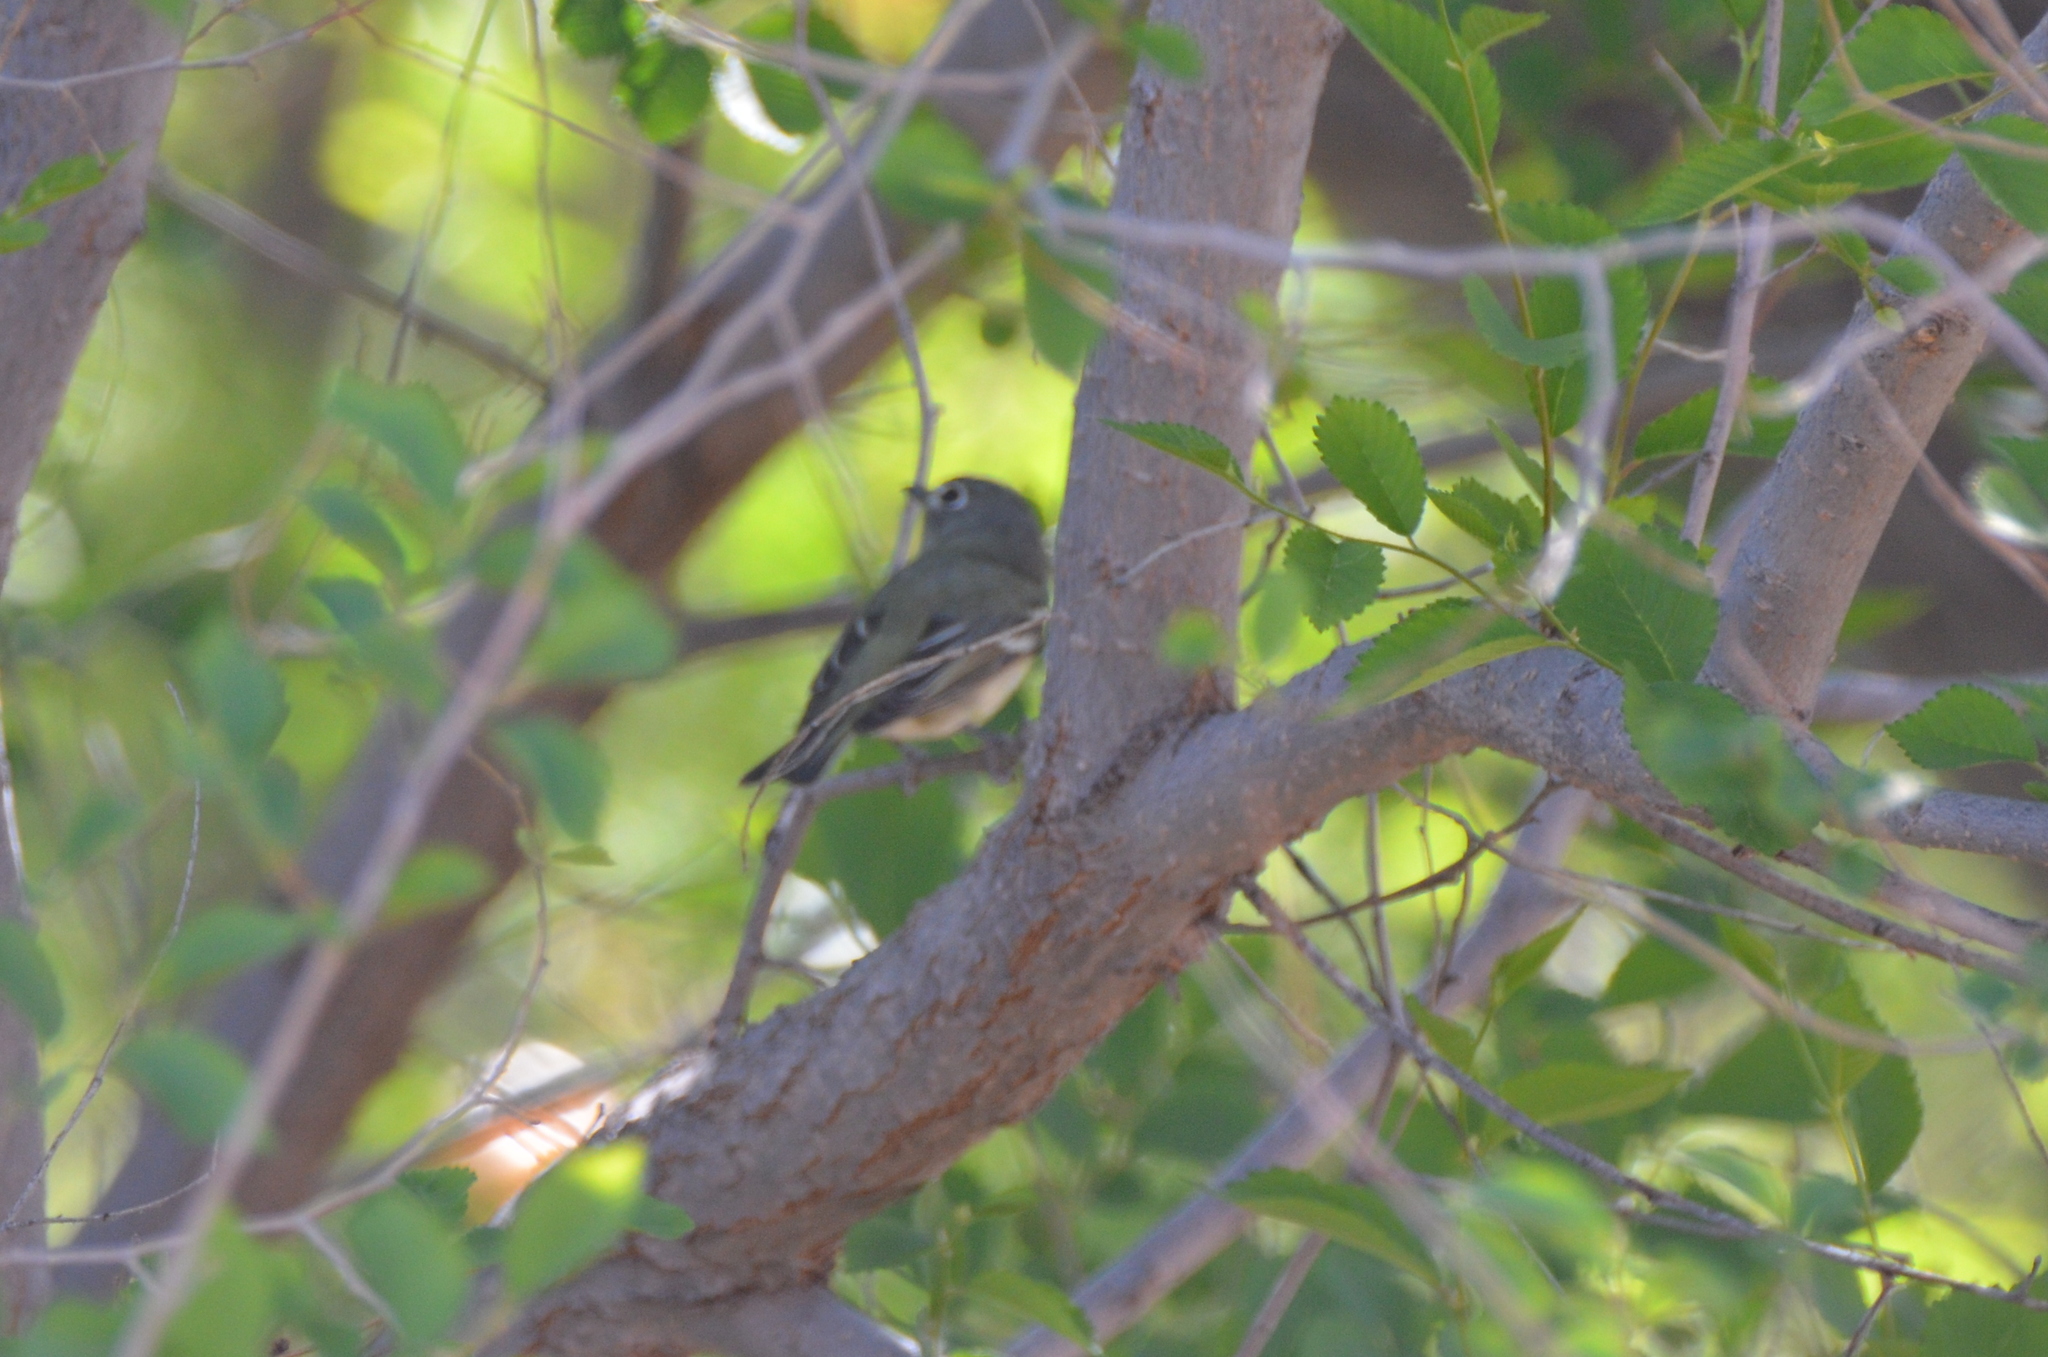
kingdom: Animalia
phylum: Chordata
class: Aves
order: Passeriformes
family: Vireonidae
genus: Vireo
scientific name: Vireo plumbeus
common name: Plumbeous vireo
